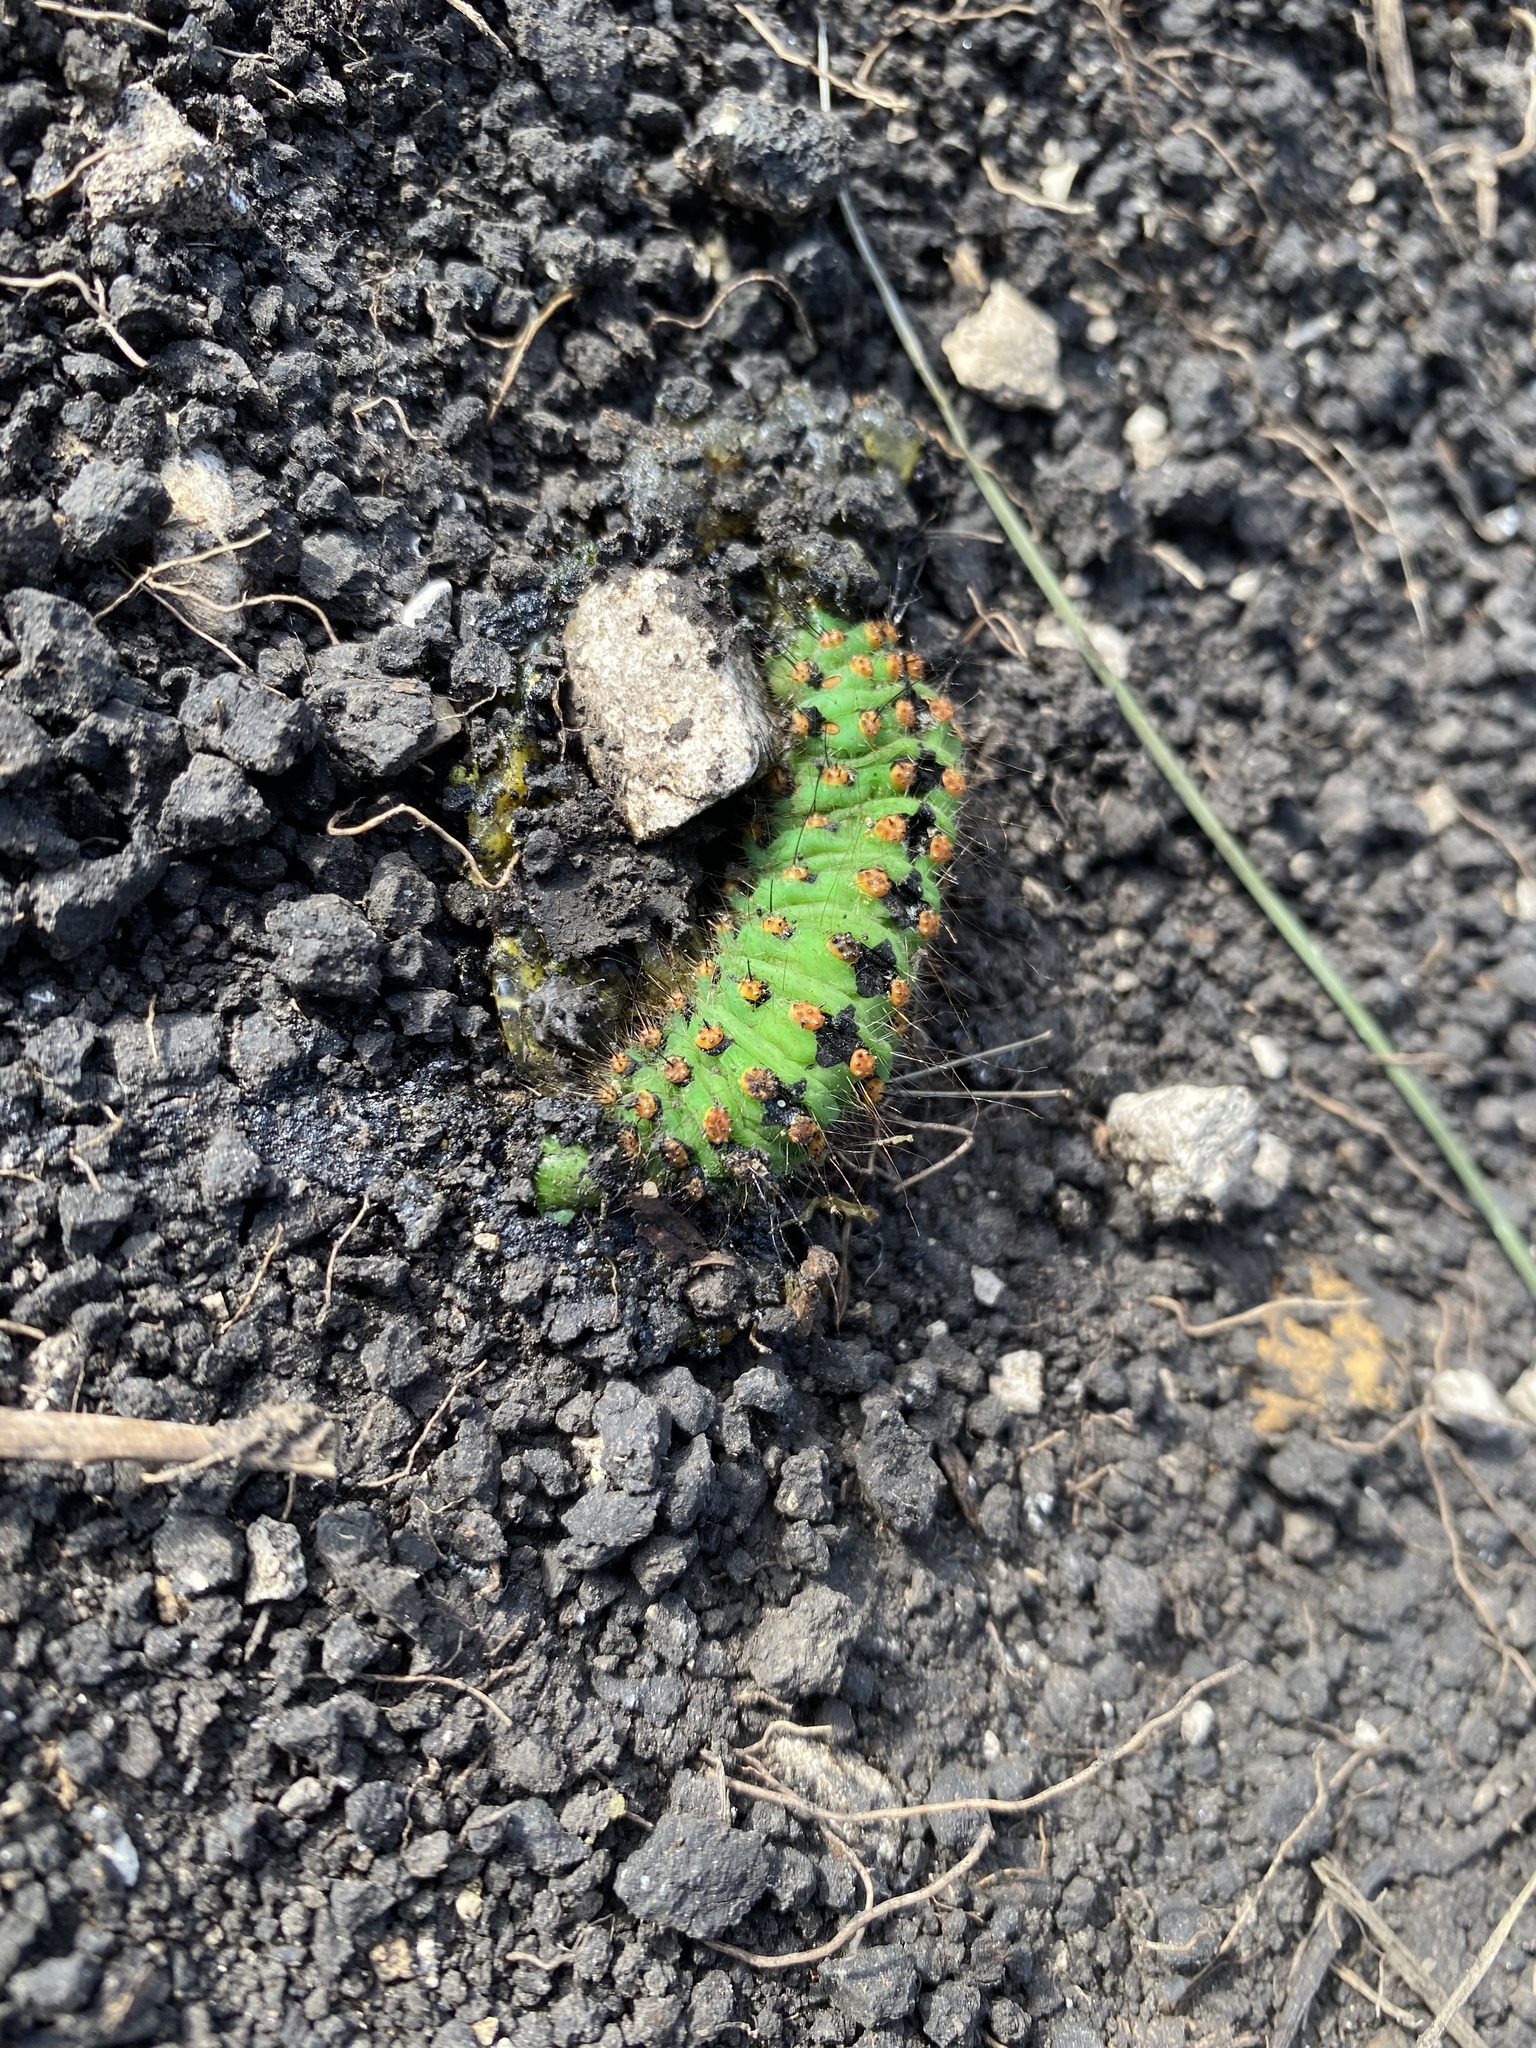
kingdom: Animalia
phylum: Arthropoda
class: Insecta
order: Lepidoptera
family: Saturniidae
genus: Saturnia
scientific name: Saturnia pavonia
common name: Emperor moth
